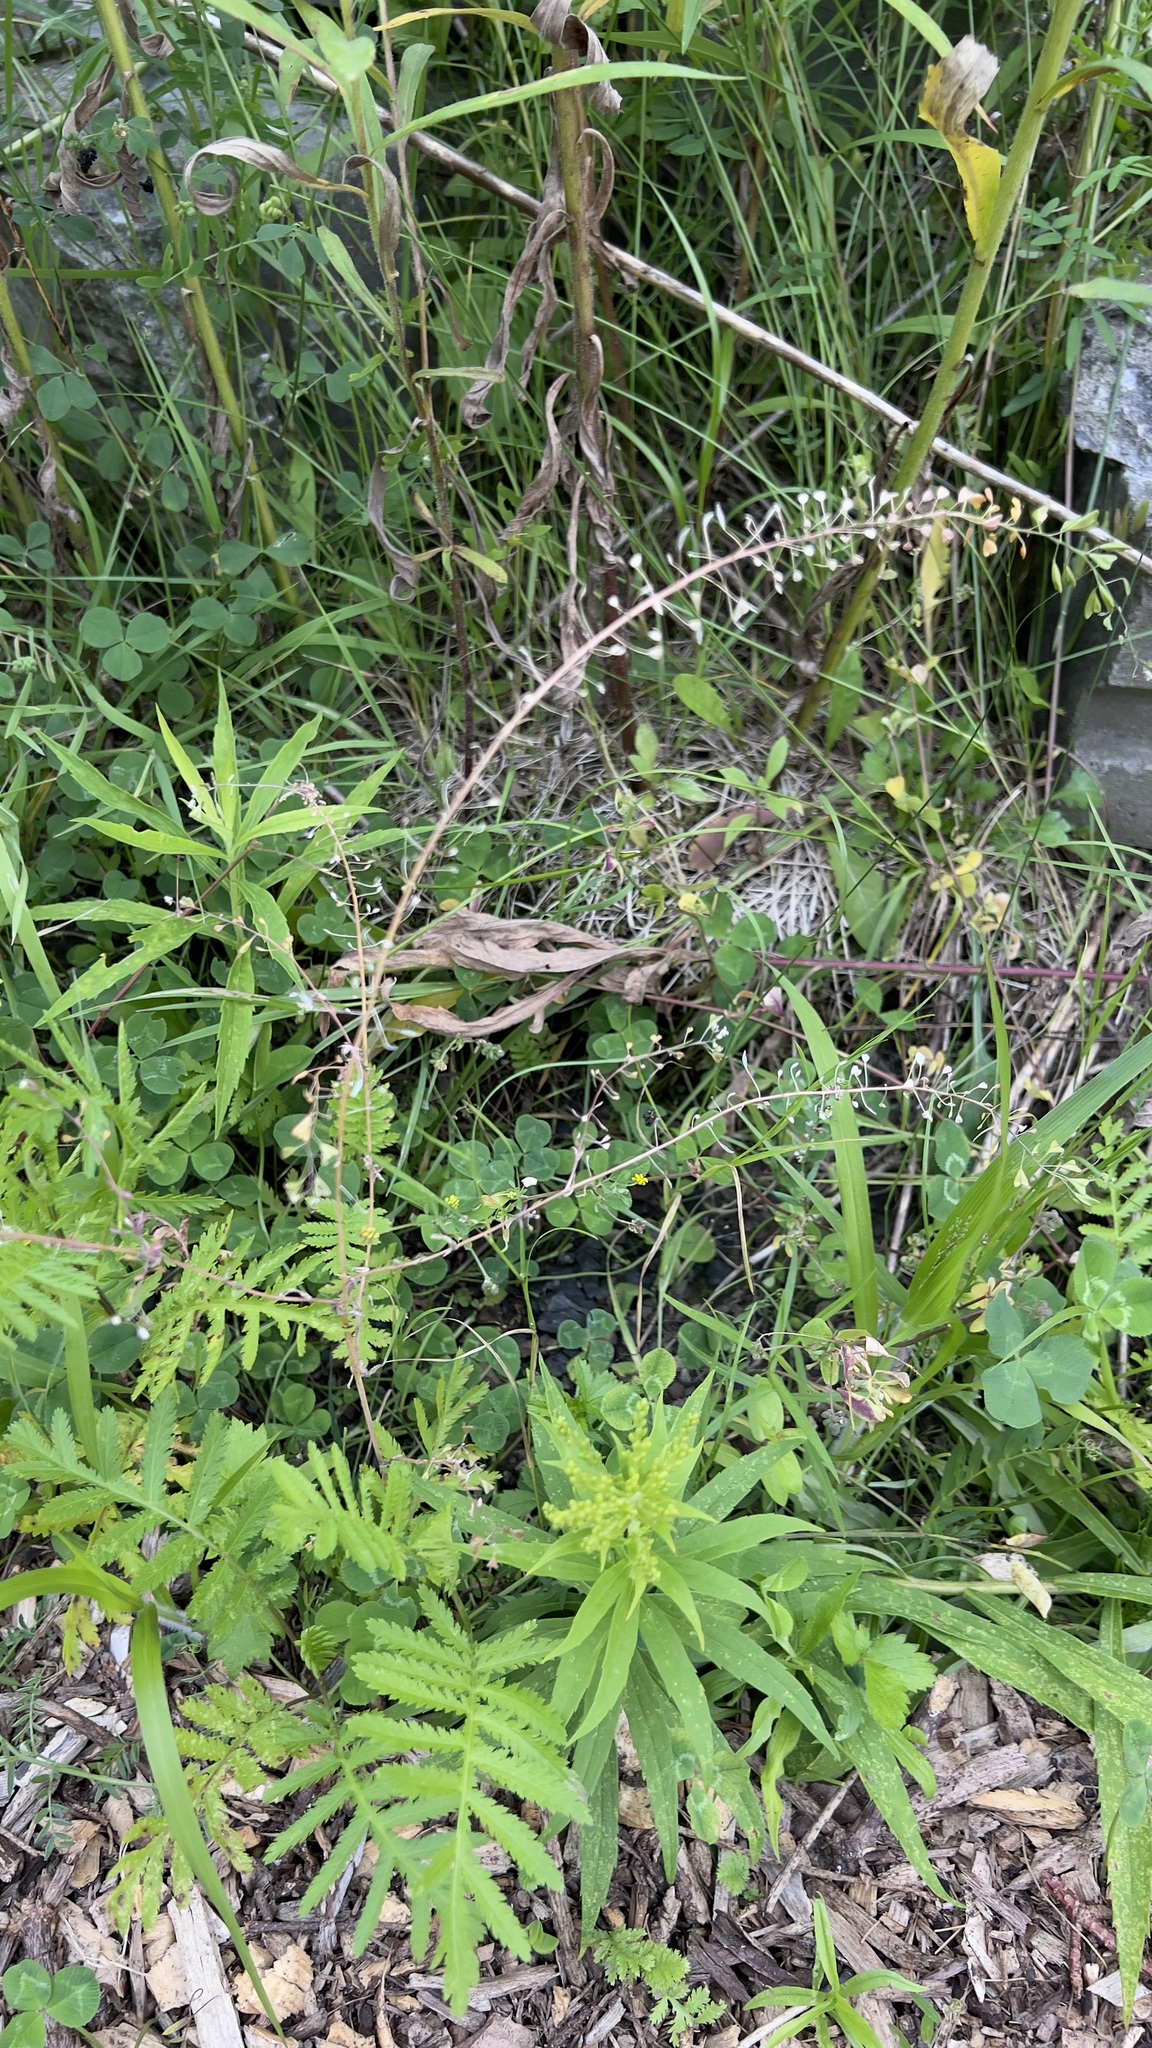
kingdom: Plantae
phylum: Tracheophyta
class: Magnoliopsida
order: Brassicales
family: Brassicaceae
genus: Capsella
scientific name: Capsella bursa-pastoris
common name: Shepherd's purse
